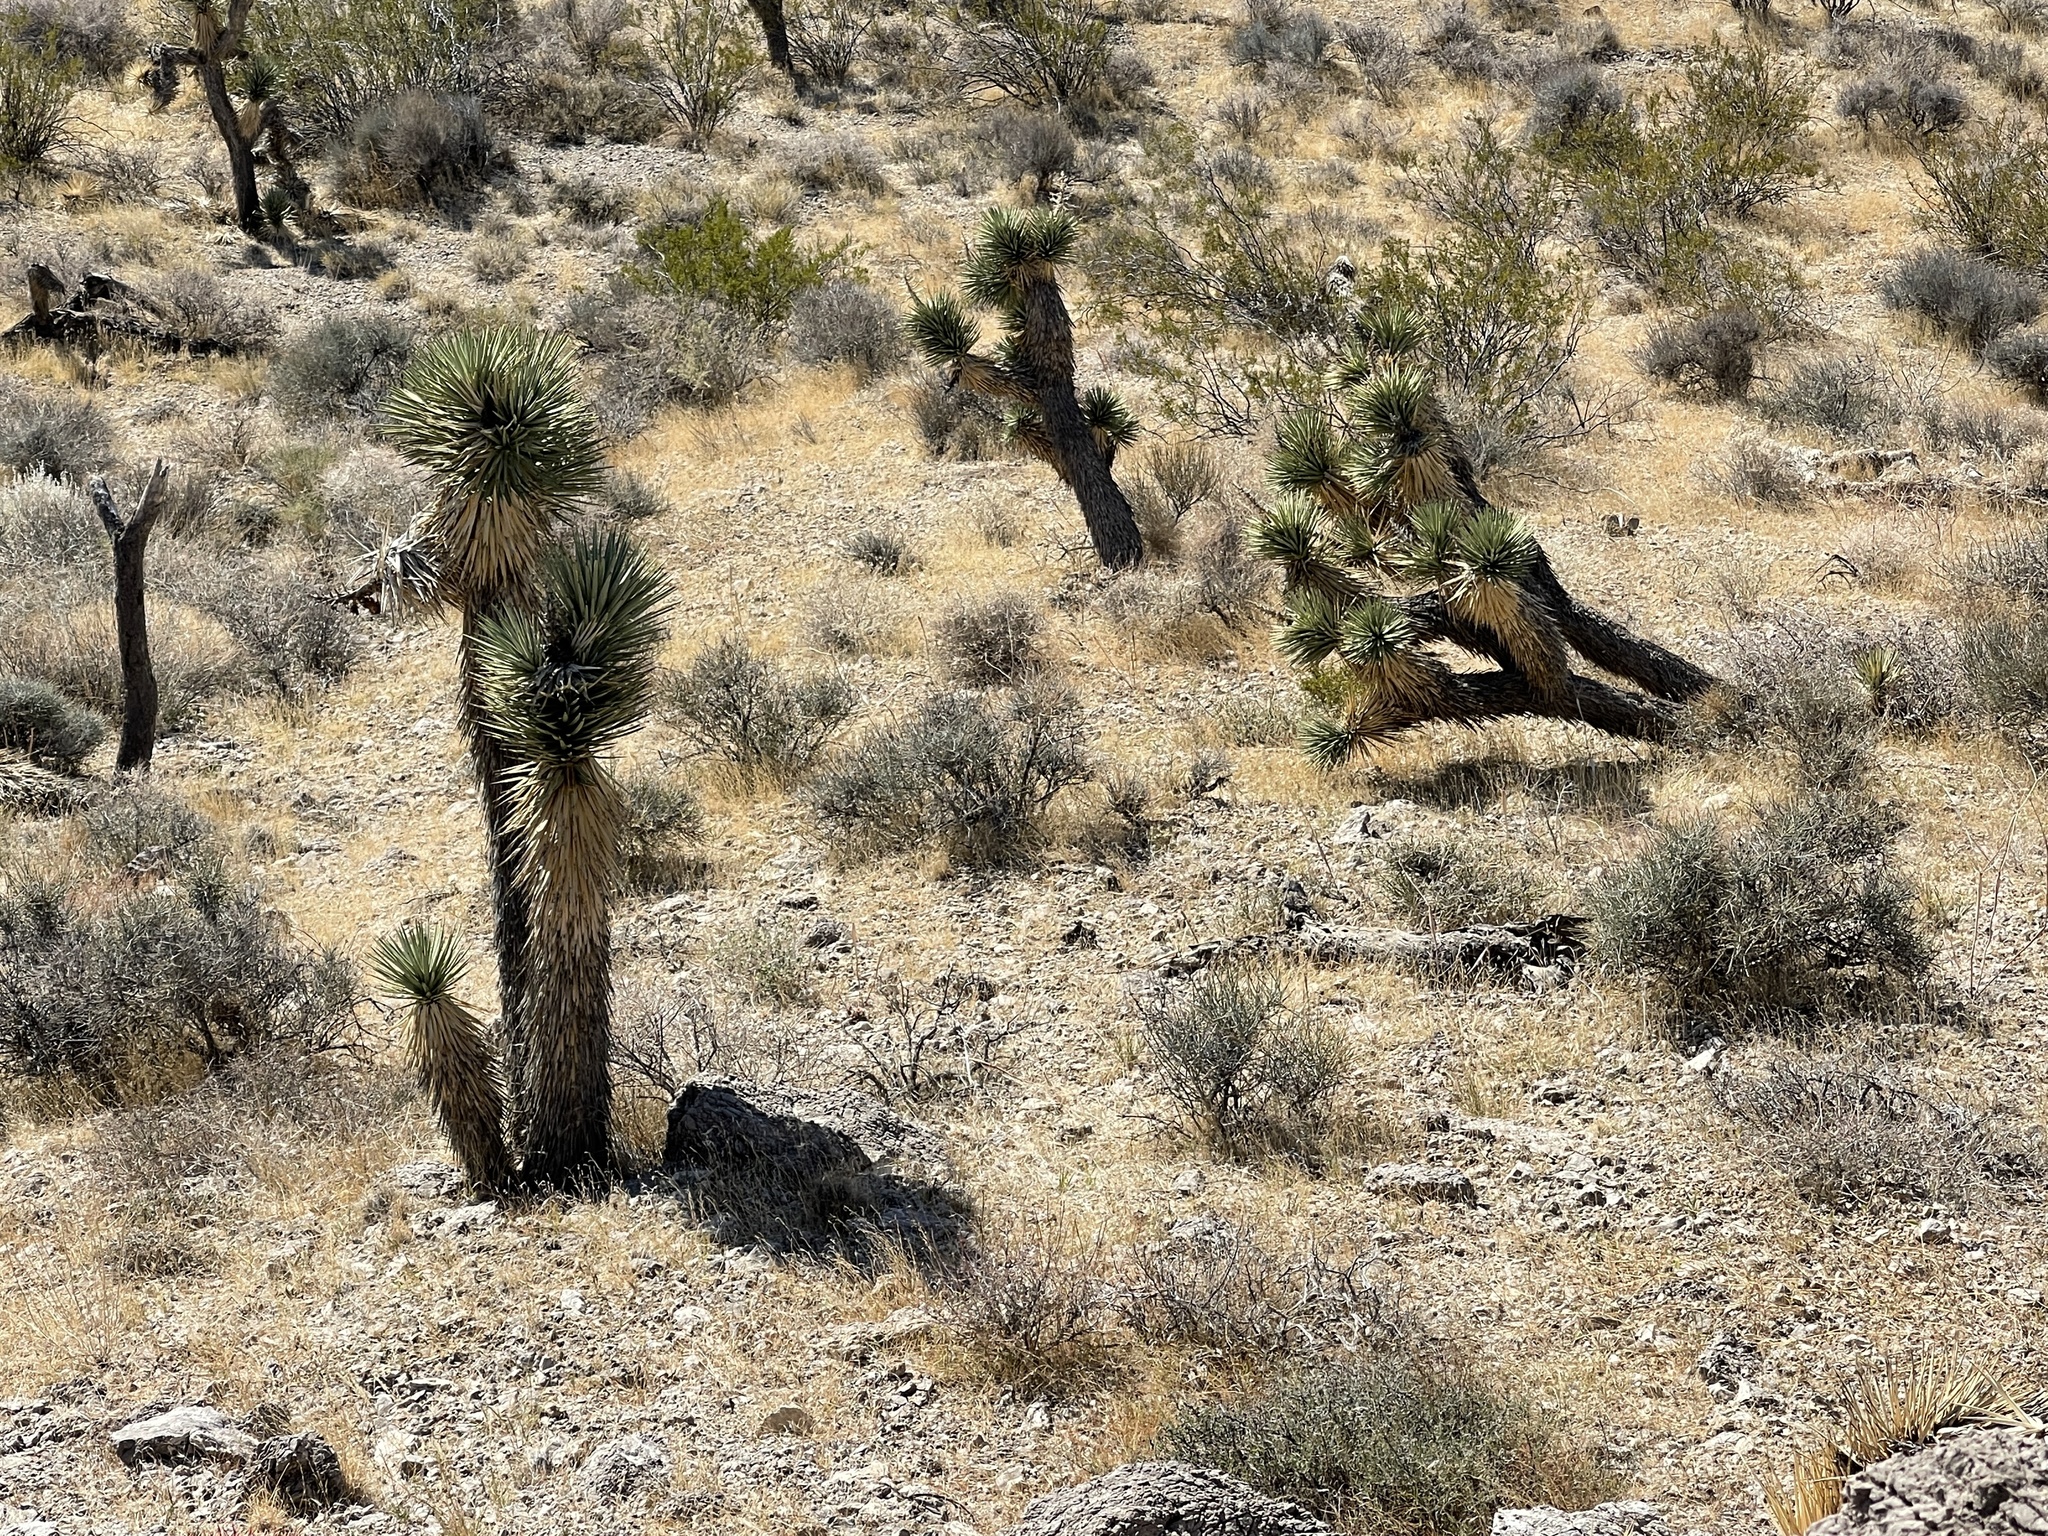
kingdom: Plantae
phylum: Tracheophyta
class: Liliopsida
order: Asparagales
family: Asparagaceae
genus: Yucca
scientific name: Yucca brevifolia
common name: Joshua tree
